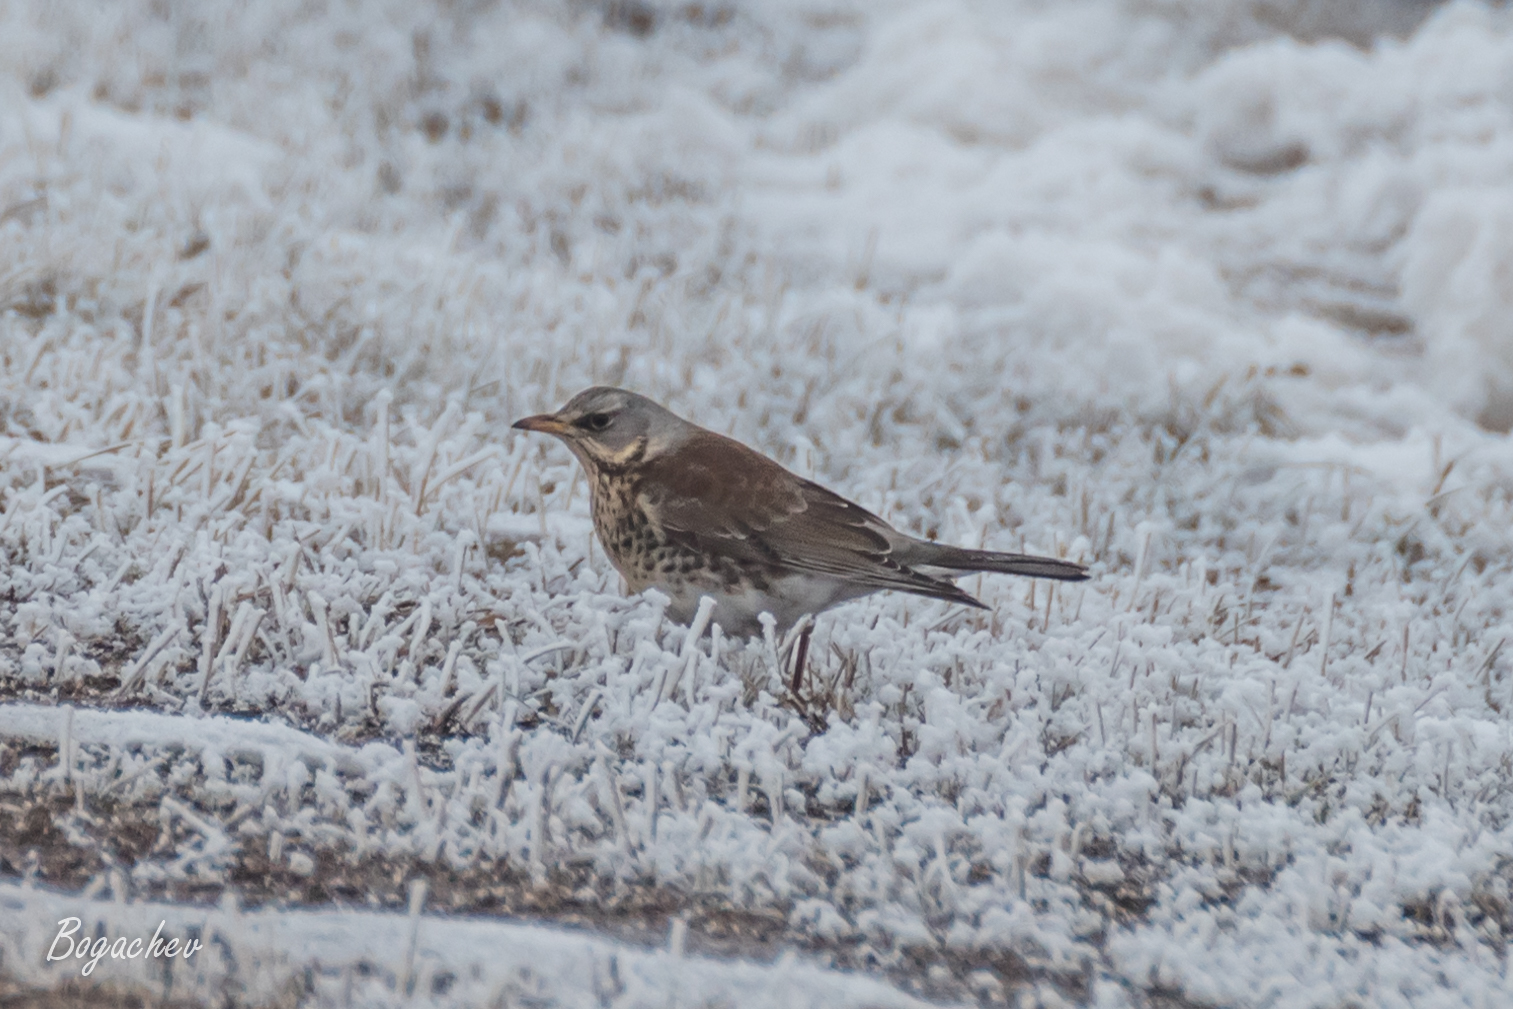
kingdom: Animalia
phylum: Chordata
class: Aves
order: Passeriformes
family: Turdidae
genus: Turdus
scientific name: Turdus pilaris
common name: Fieldfare
